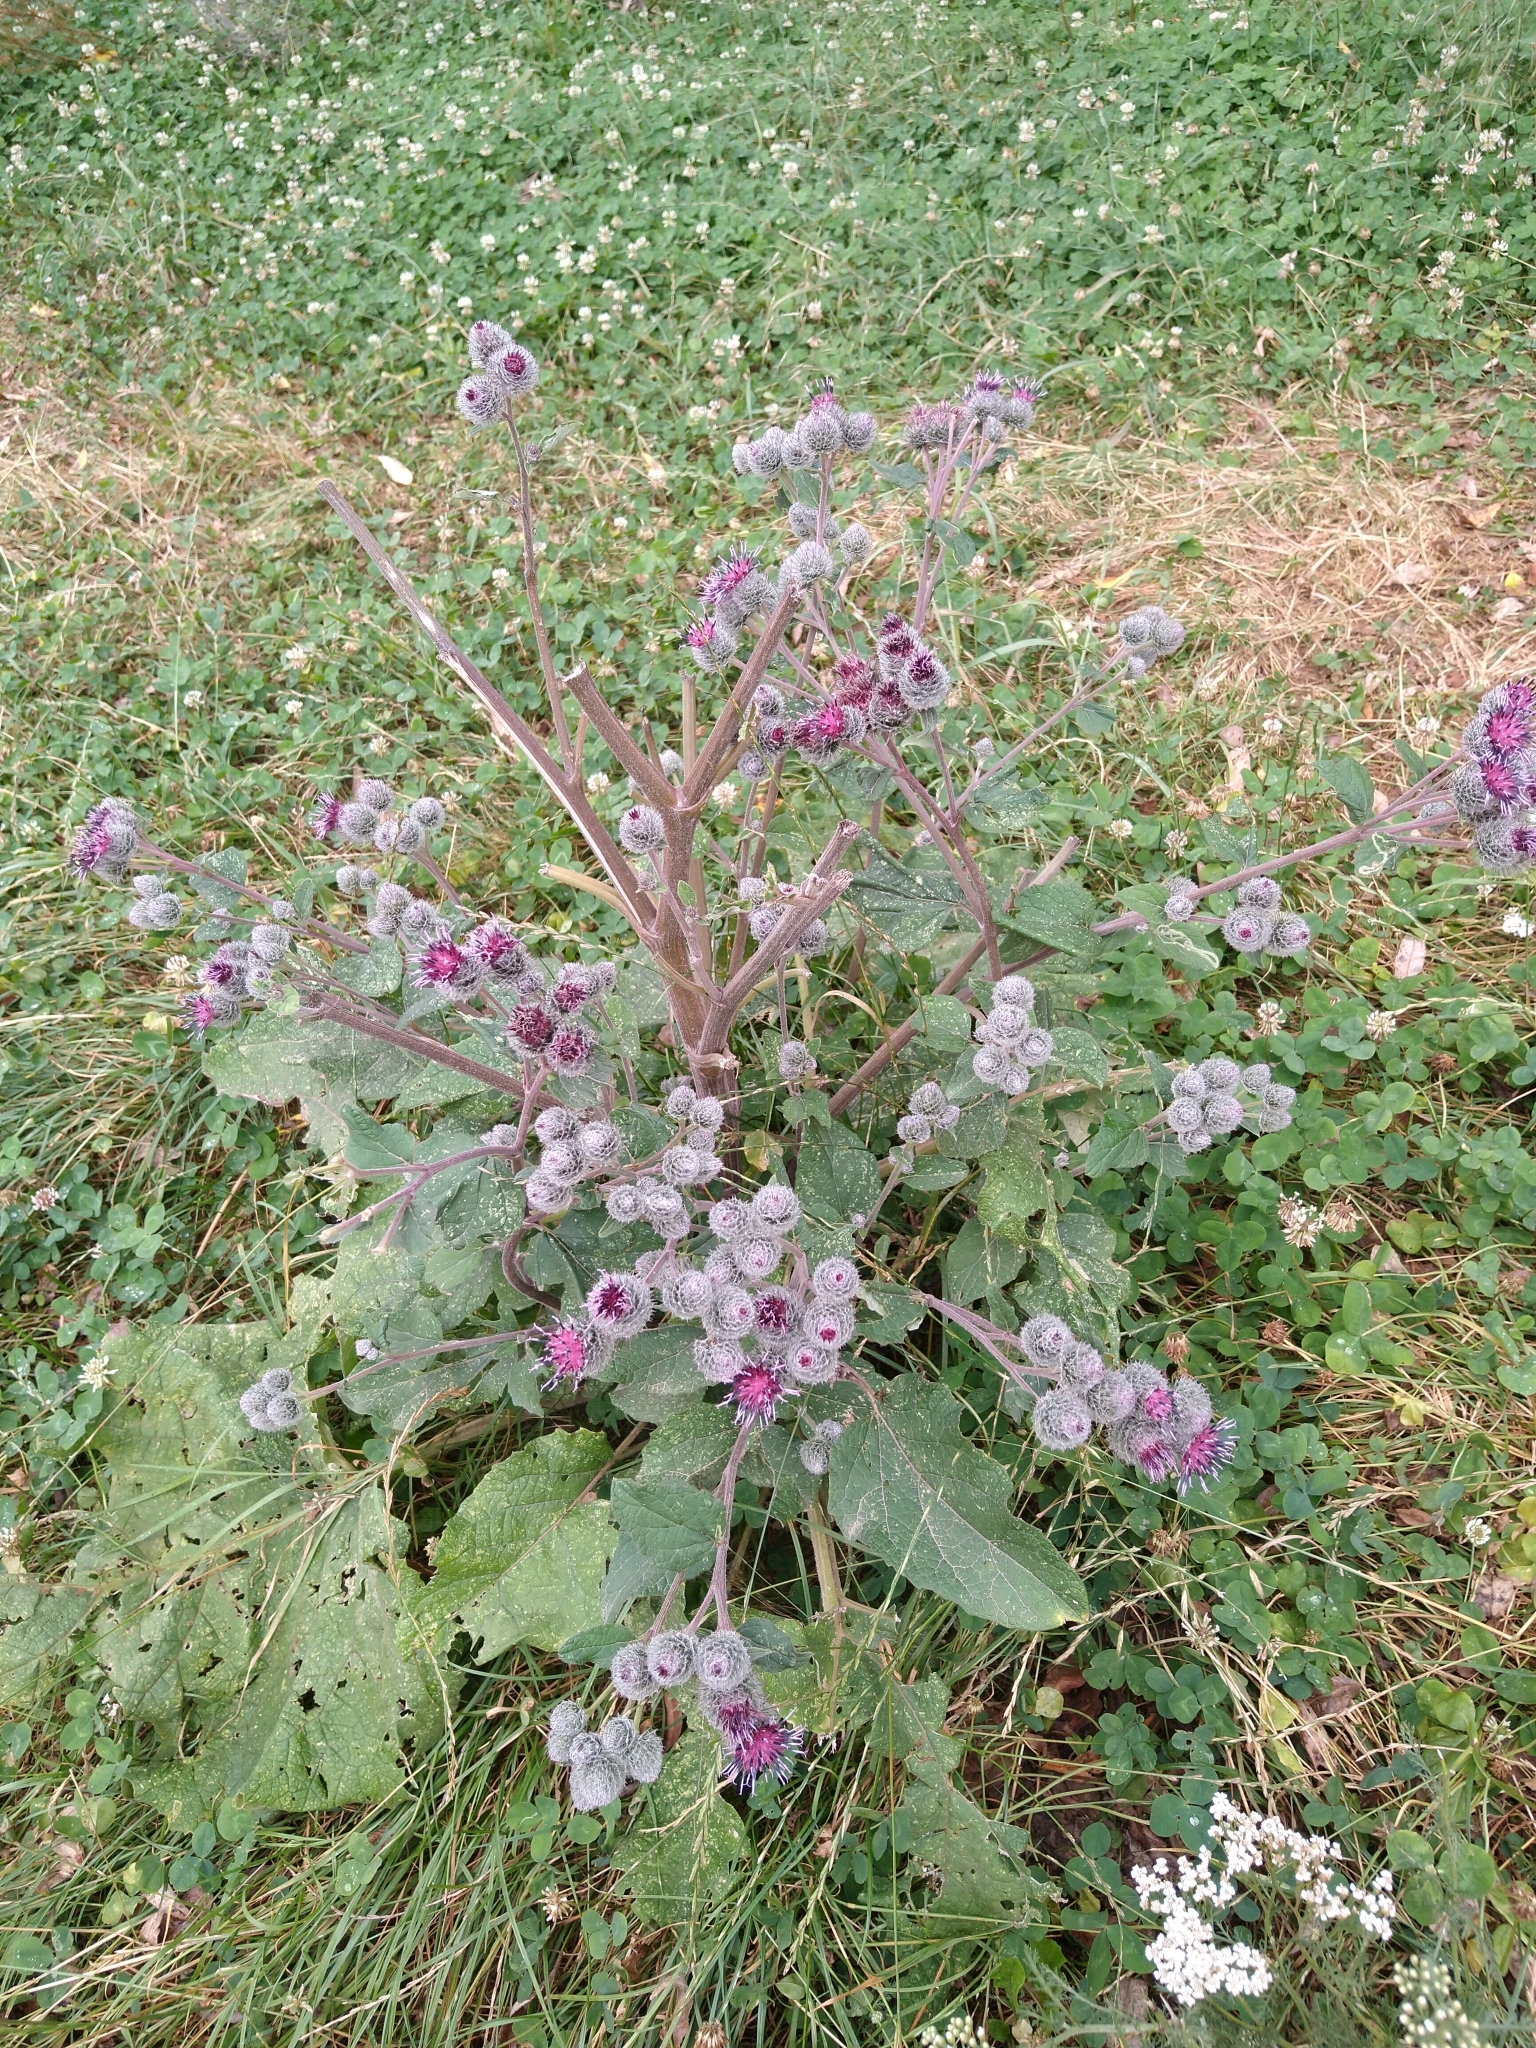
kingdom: Plantae
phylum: Tracheophyta
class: Magnoliopsida
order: Asterales
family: Asteraceae
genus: Arctium
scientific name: Arctium tomentosum
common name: Woolly burdock
